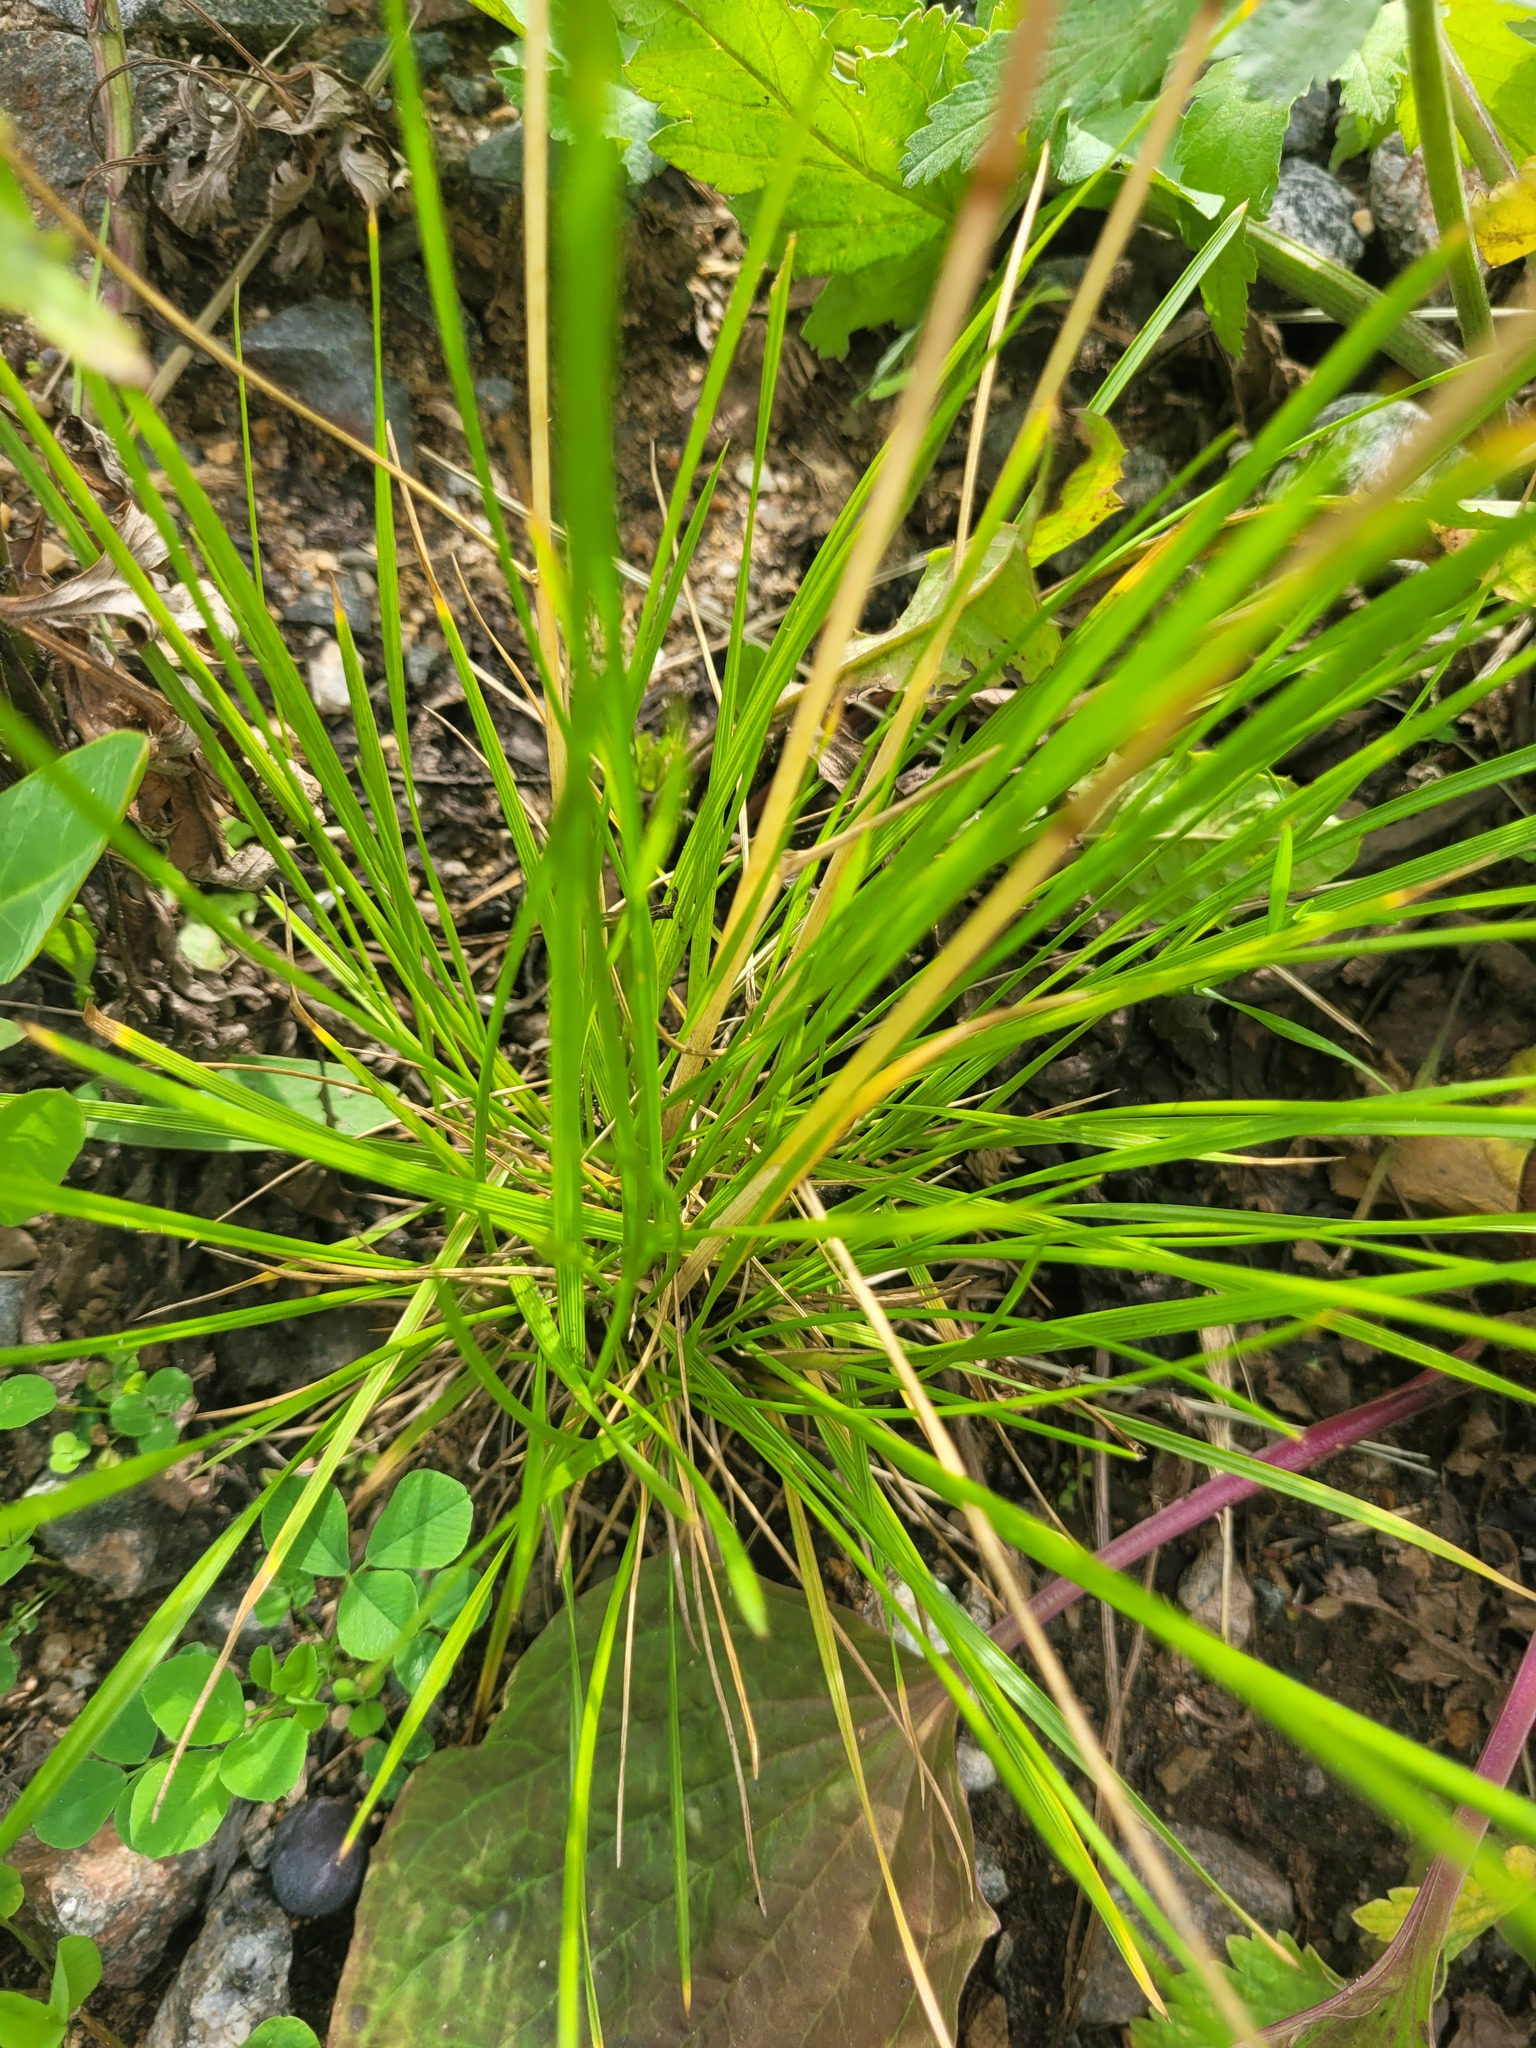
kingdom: Plantae
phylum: Tracheophyta
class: Liliopsida
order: Poales
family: Poaceae
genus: Deschampsia
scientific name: Deschampsia cespitosa
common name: Tufted hair-grass
